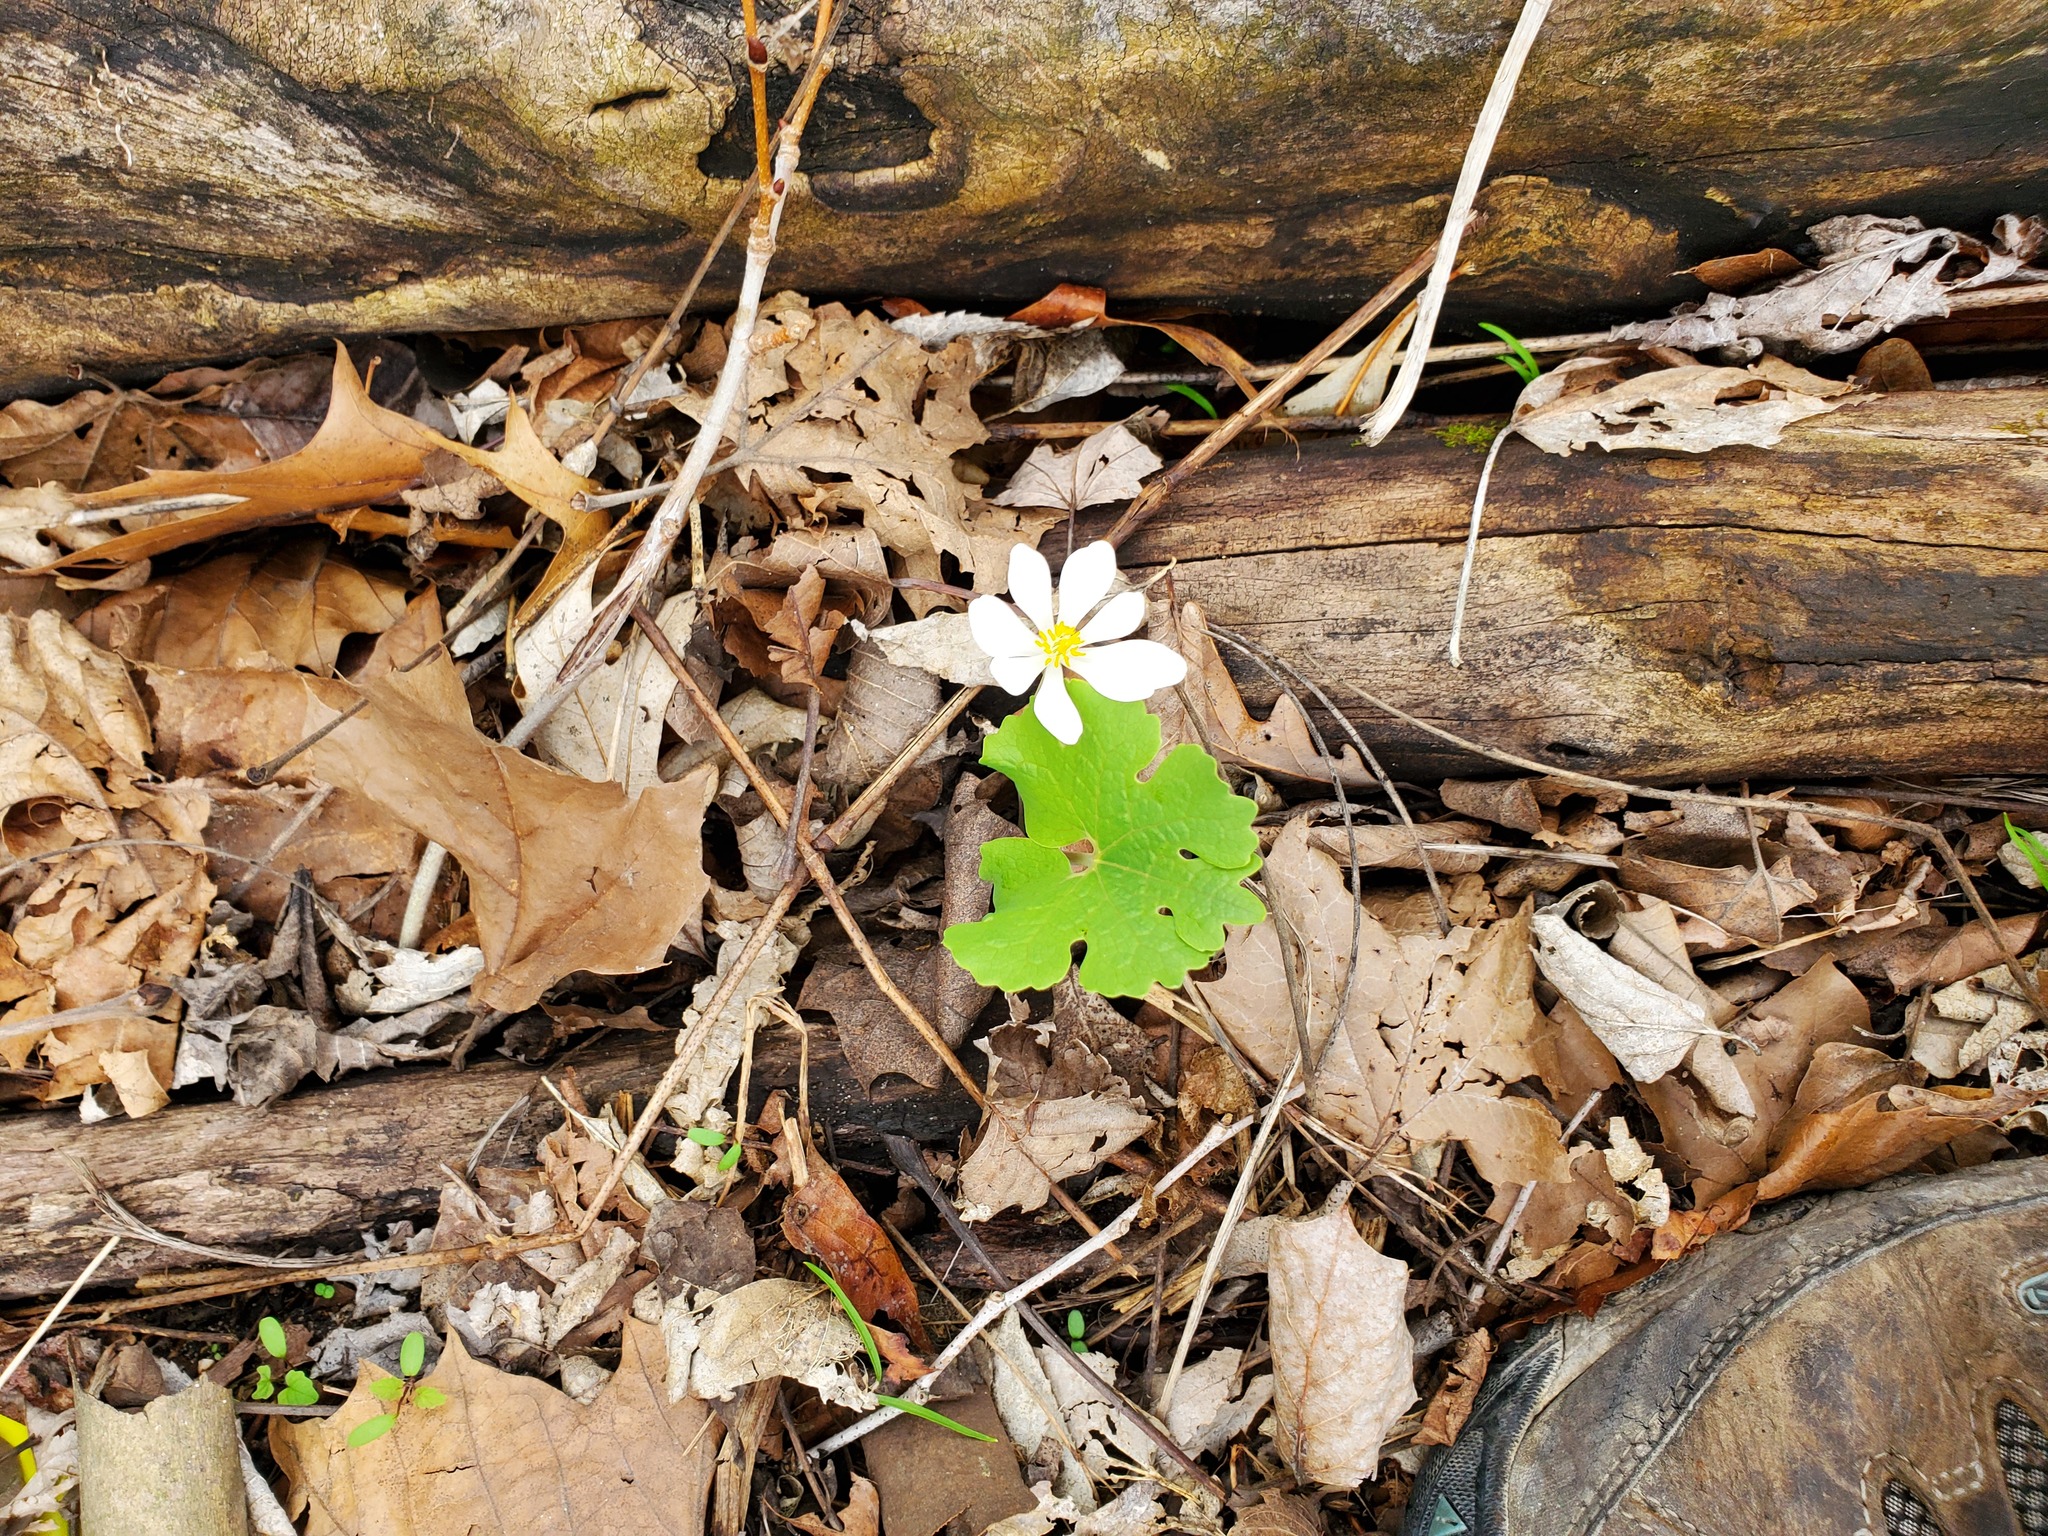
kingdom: Plantae
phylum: Tracheophyta
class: Magnoliopsida
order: Ranunculales
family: Papaveraceae
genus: Sanguinaria
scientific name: Sanguinaria canadensis
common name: Bloodroot
